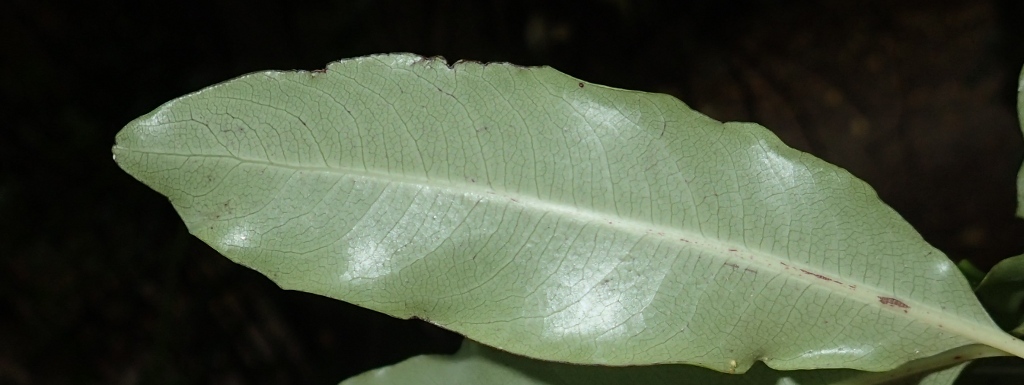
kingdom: Plantae
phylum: Tracheophyta
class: Magnoliopsida
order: Apiales
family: Pittosporaceae
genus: Pittosporum
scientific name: Pittosporum eugenioides
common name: Lemonwood
